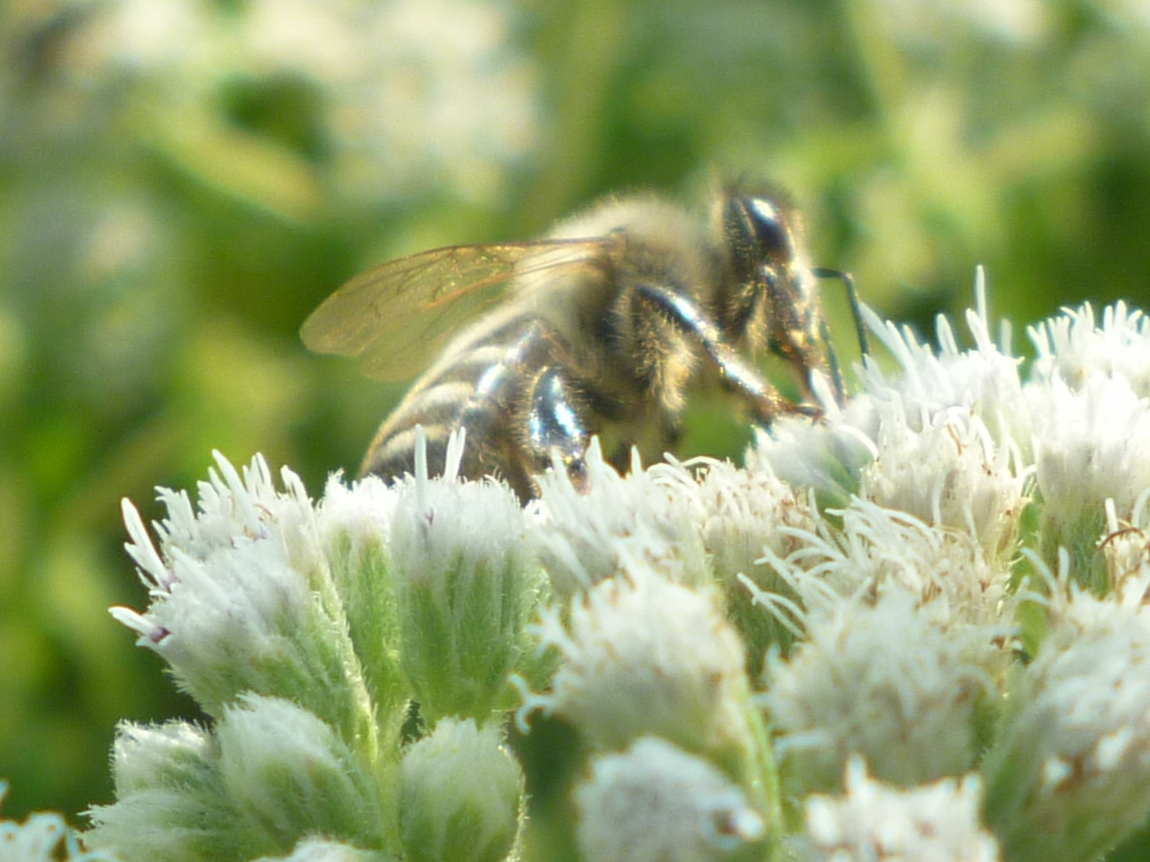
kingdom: Animalia
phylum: Arthropoda
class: Insecta
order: Hymenoptera
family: Apidae
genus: Apis
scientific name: Apis mellifera
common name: Honey bee
